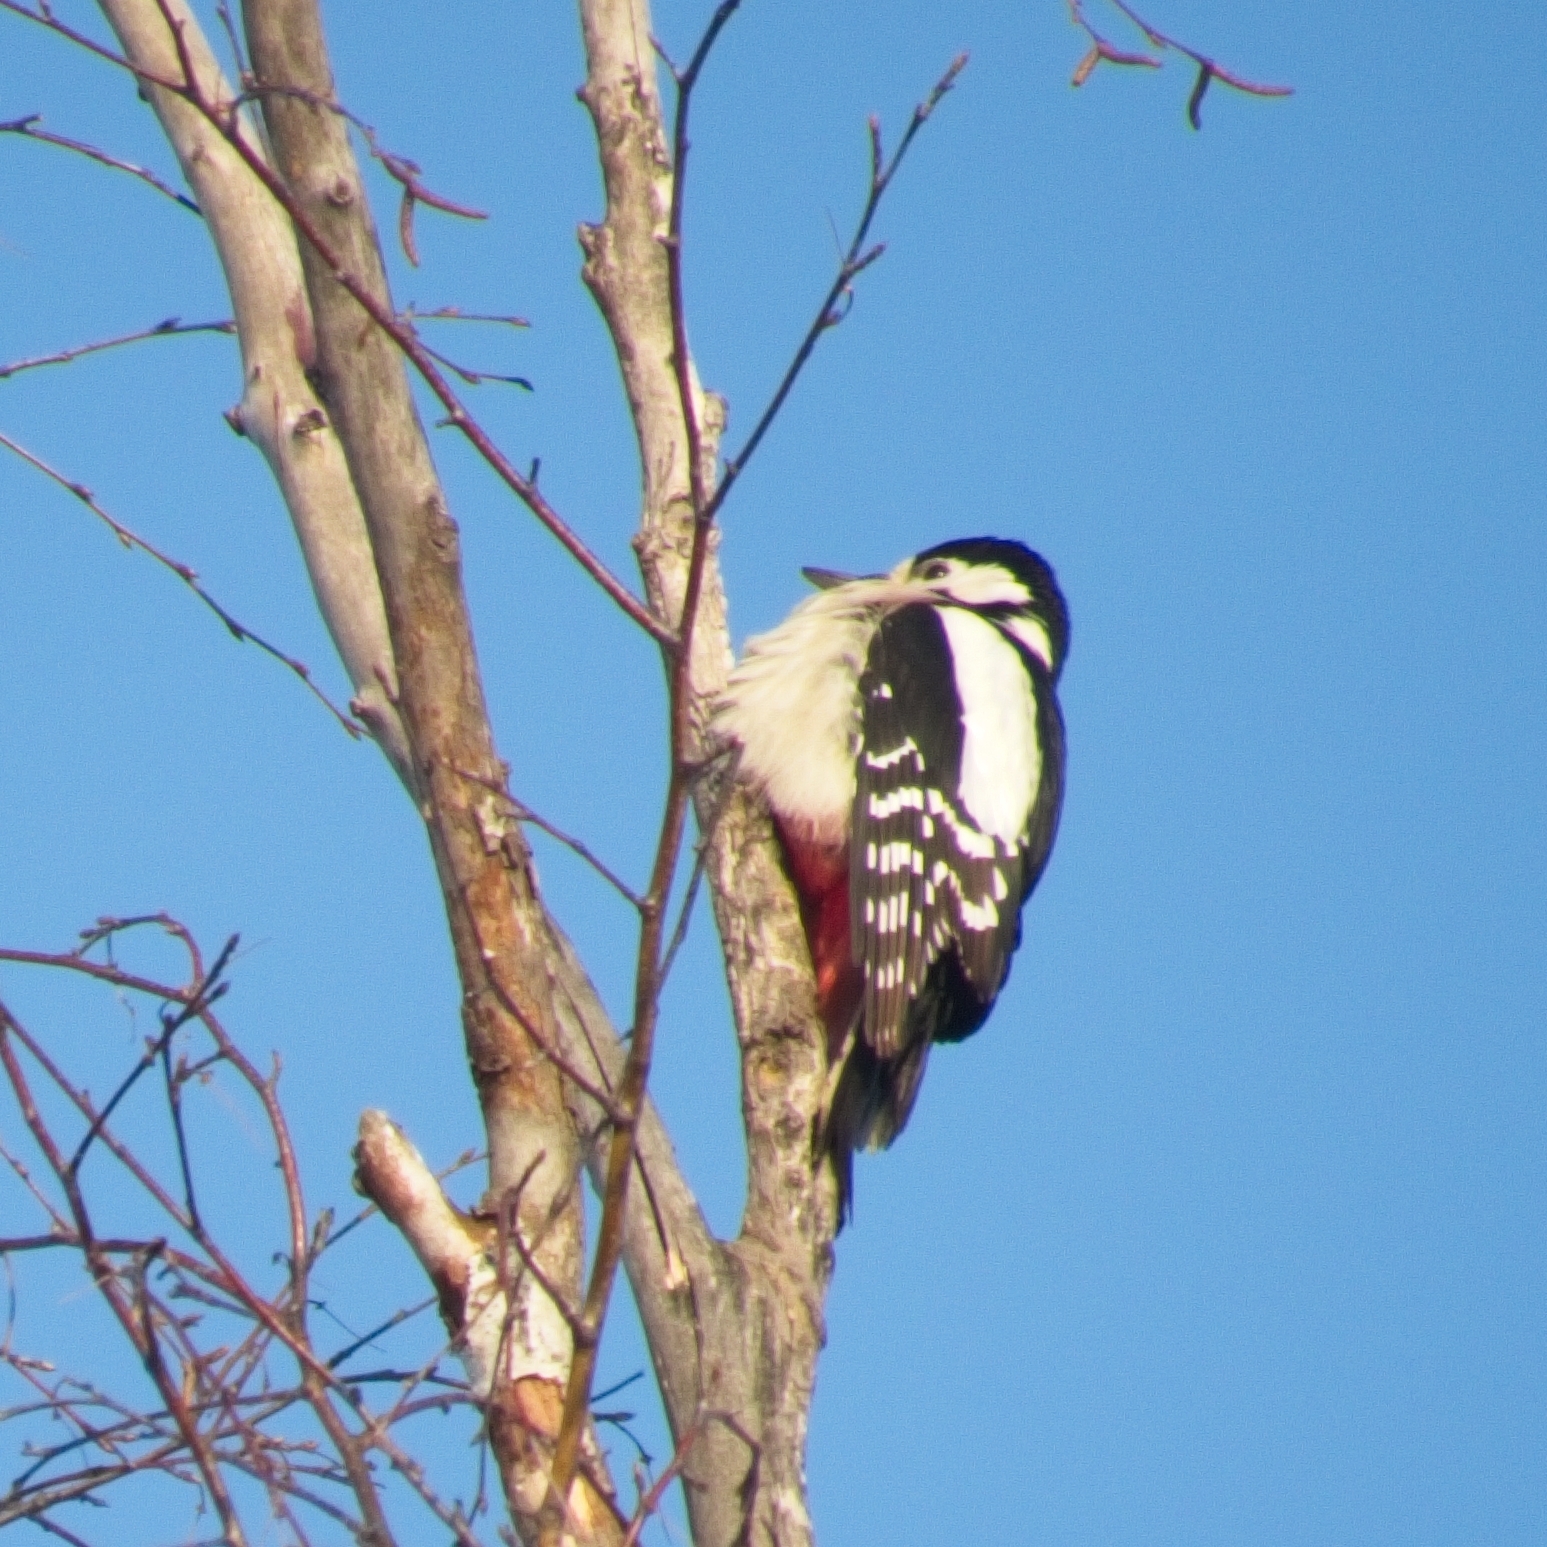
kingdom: Animalia
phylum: Chordata
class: Aves
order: Piciformes
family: Picidae
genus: Dendrocopos
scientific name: Dendrocopos major
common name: Great spotted woodpecker
